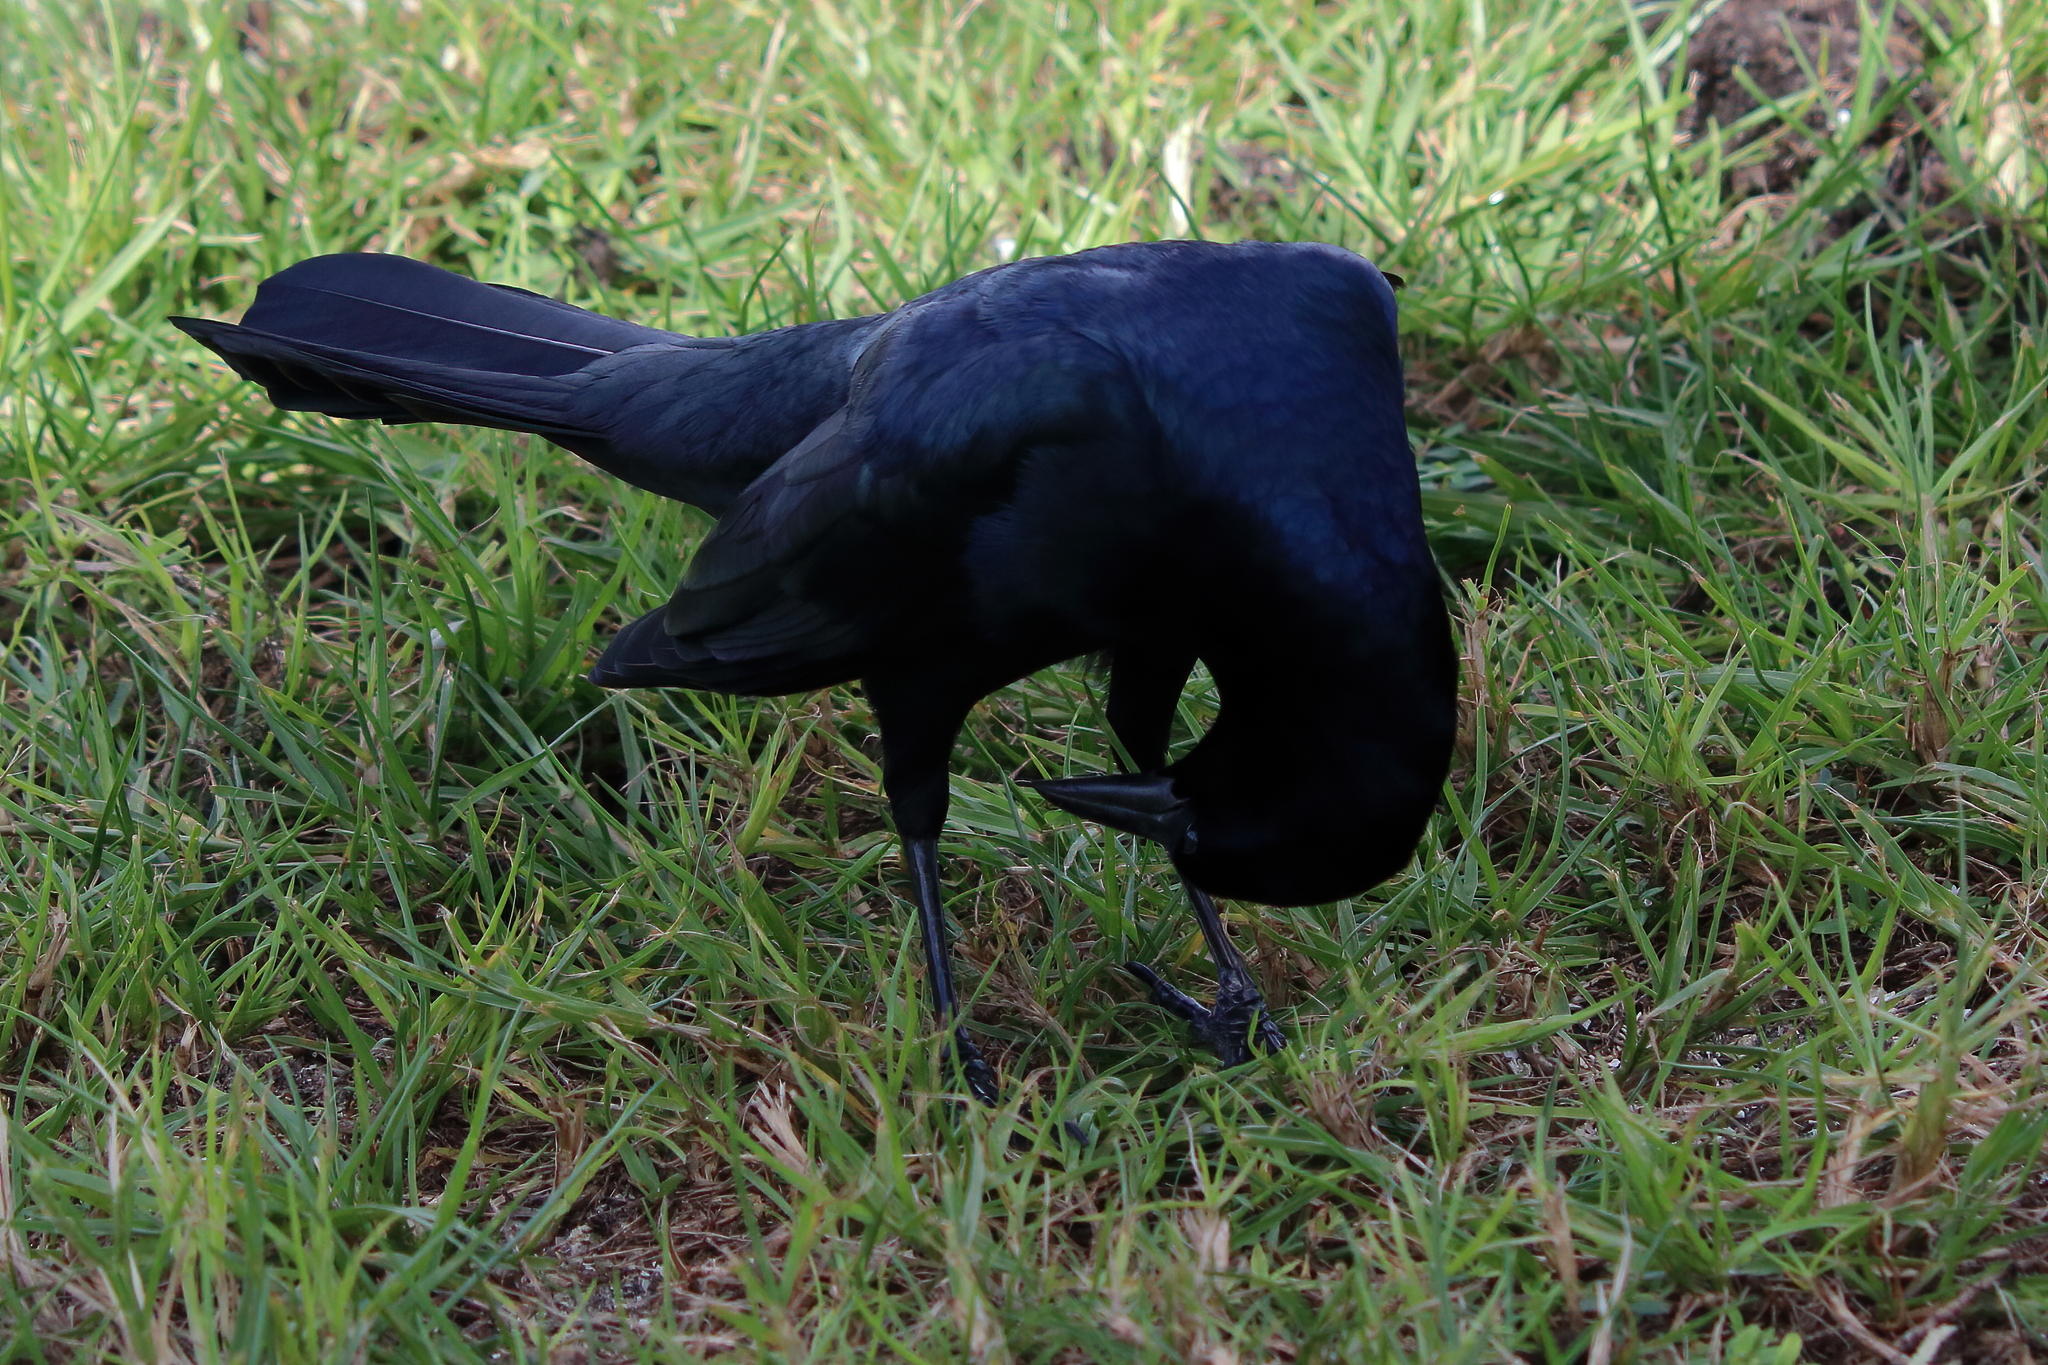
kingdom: Animalia
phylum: Chordata
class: Aves
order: Passeriformes
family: Icteridae
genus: Quiscalus
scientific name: Quiscalus major
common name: Boat-tailed grackle
